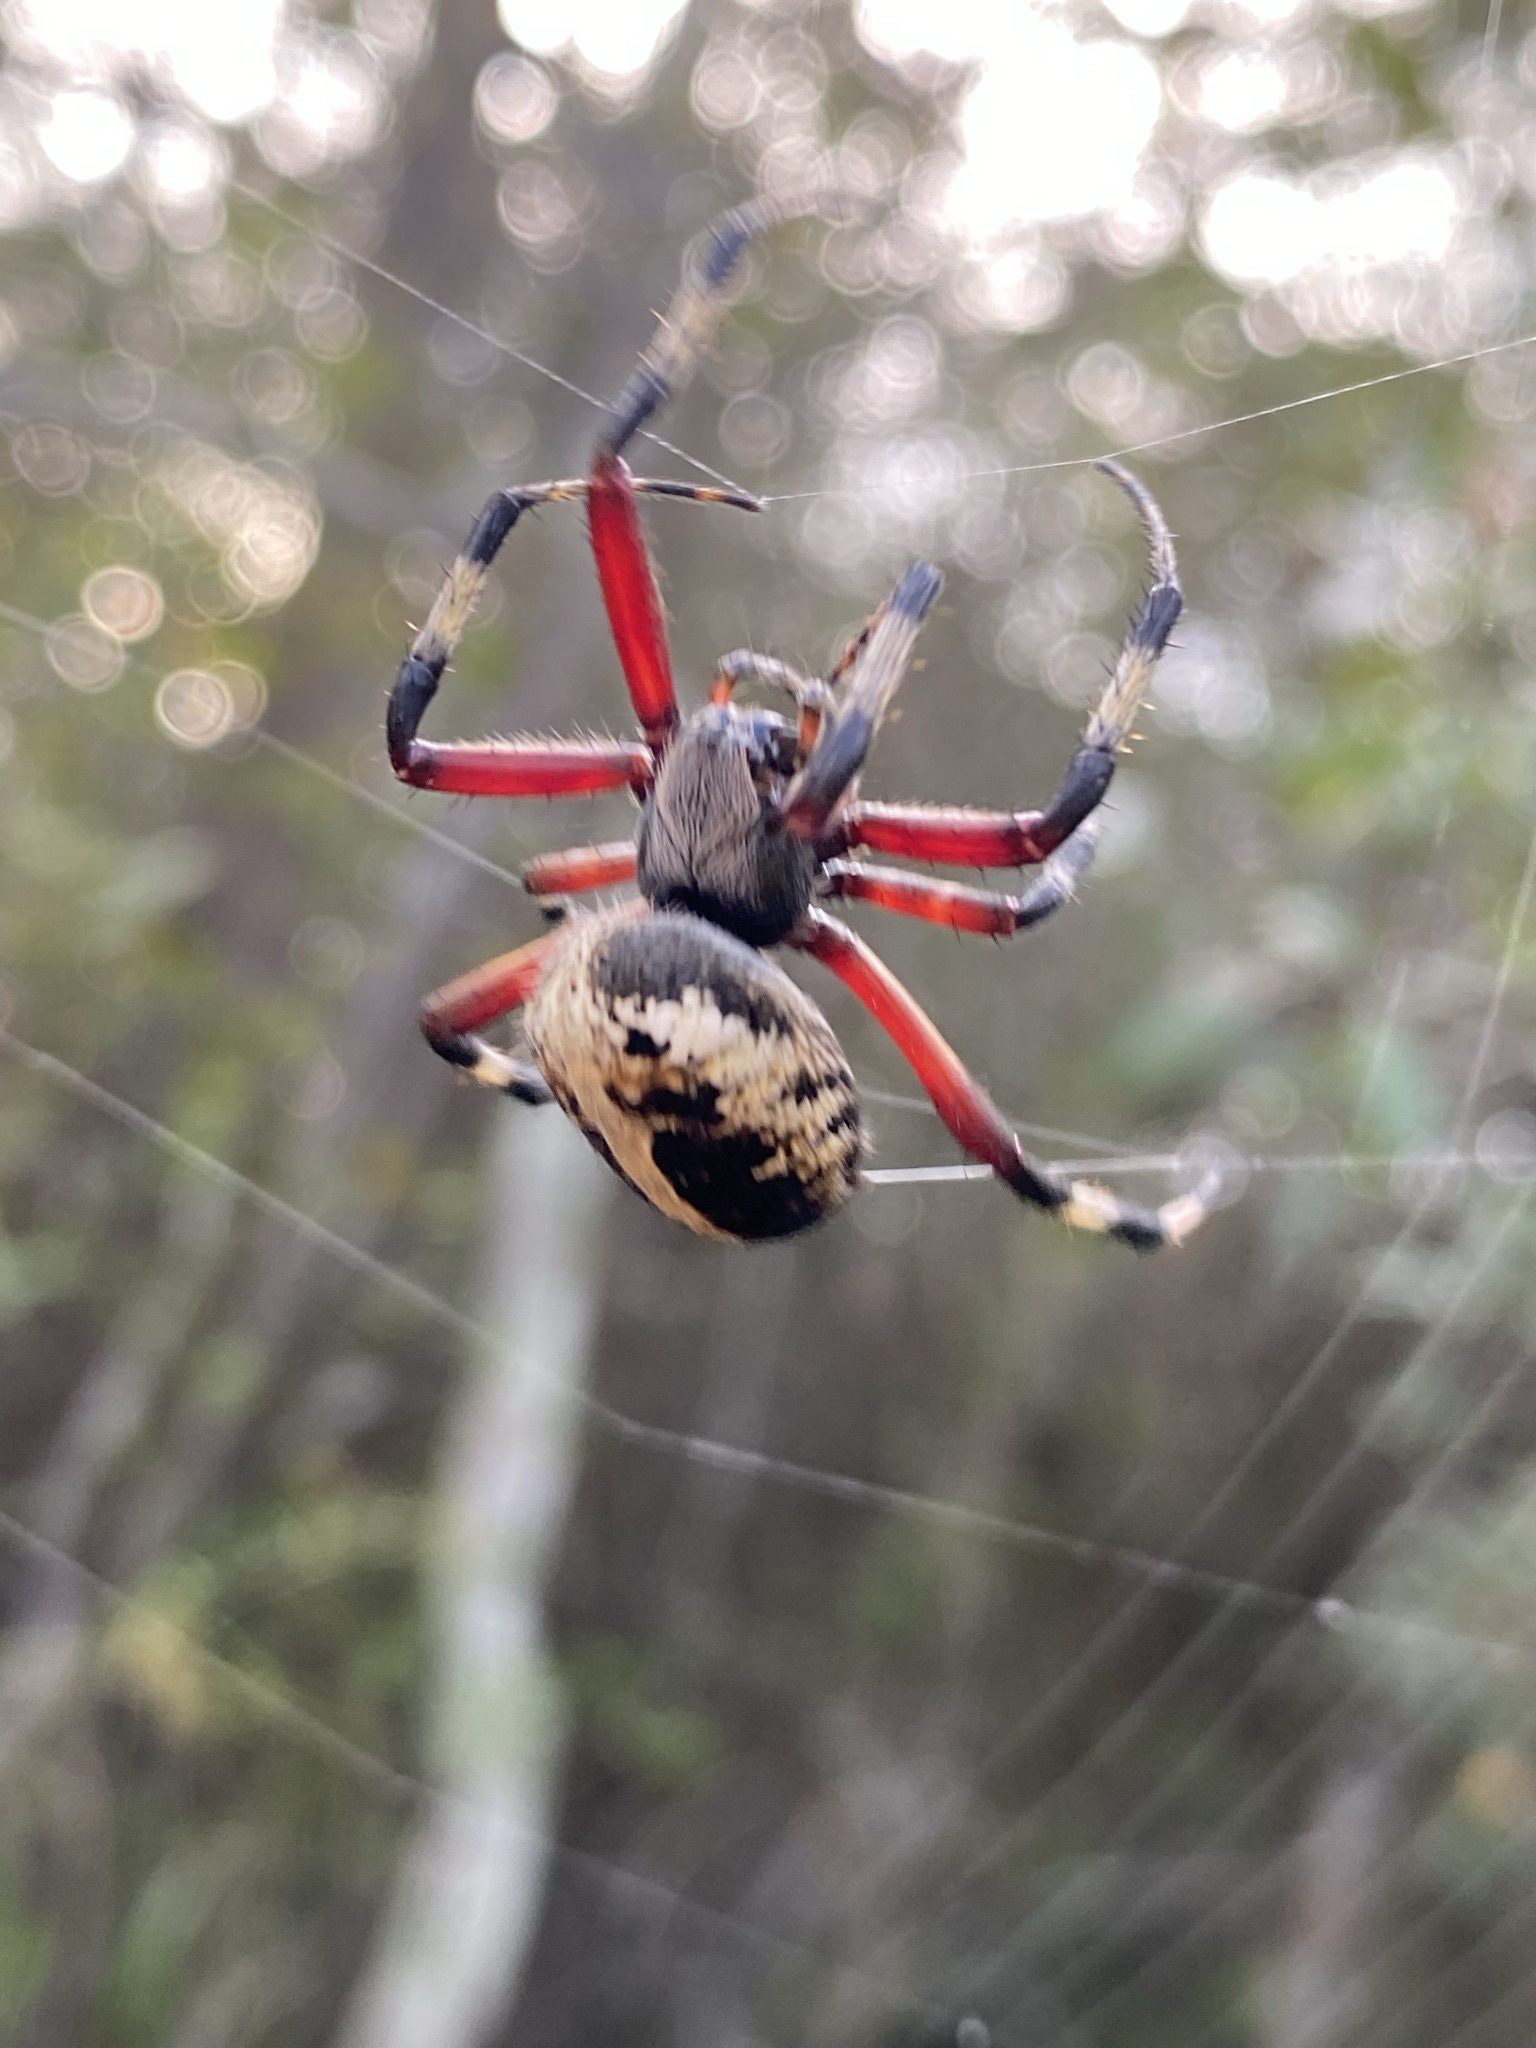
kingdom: Animalia
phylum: Arthropoda
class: Arachnida
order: Araneae
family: Araneidae
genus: Neoscona
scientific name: Neoscona domiciliorum
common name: Red-femured spotted orbweaver
